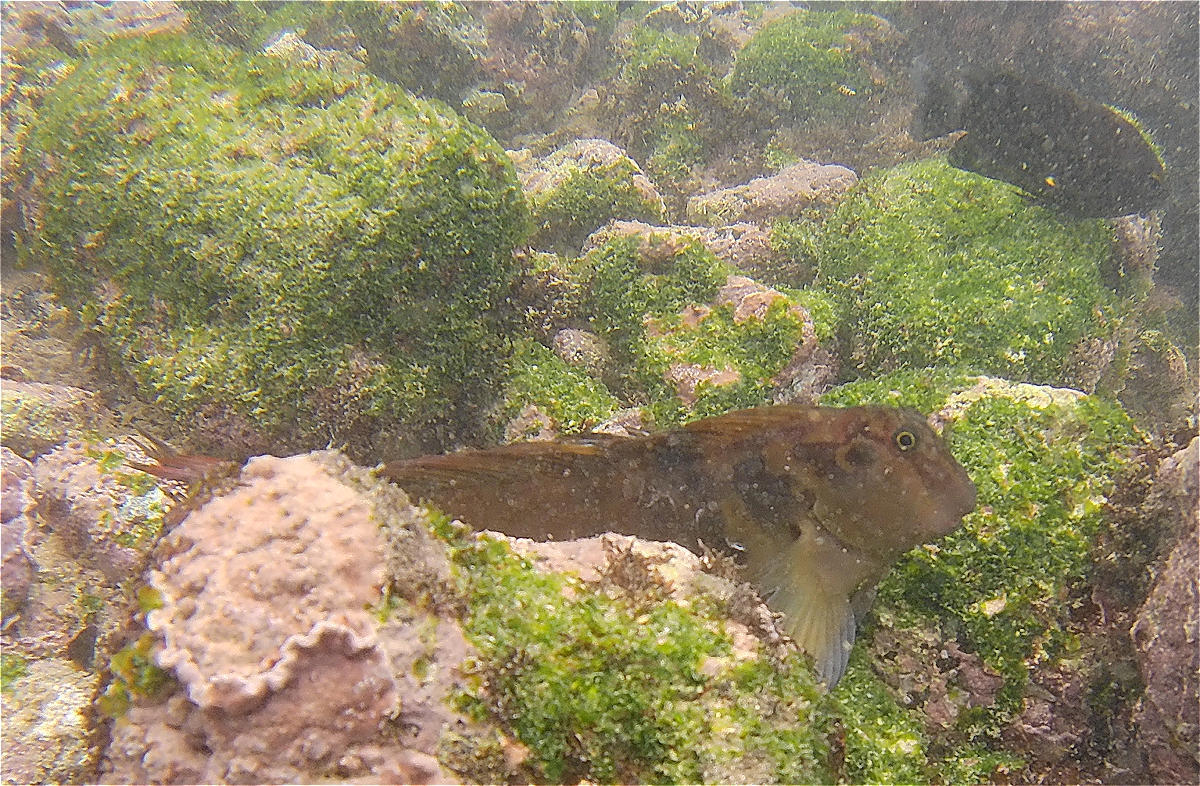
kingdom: Animalia
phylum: Chordata
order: Perciformes
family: Blenniidae
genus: Ophioblennius
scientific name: Ophioblennius steindachneri
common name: Panamic fanged blenny
